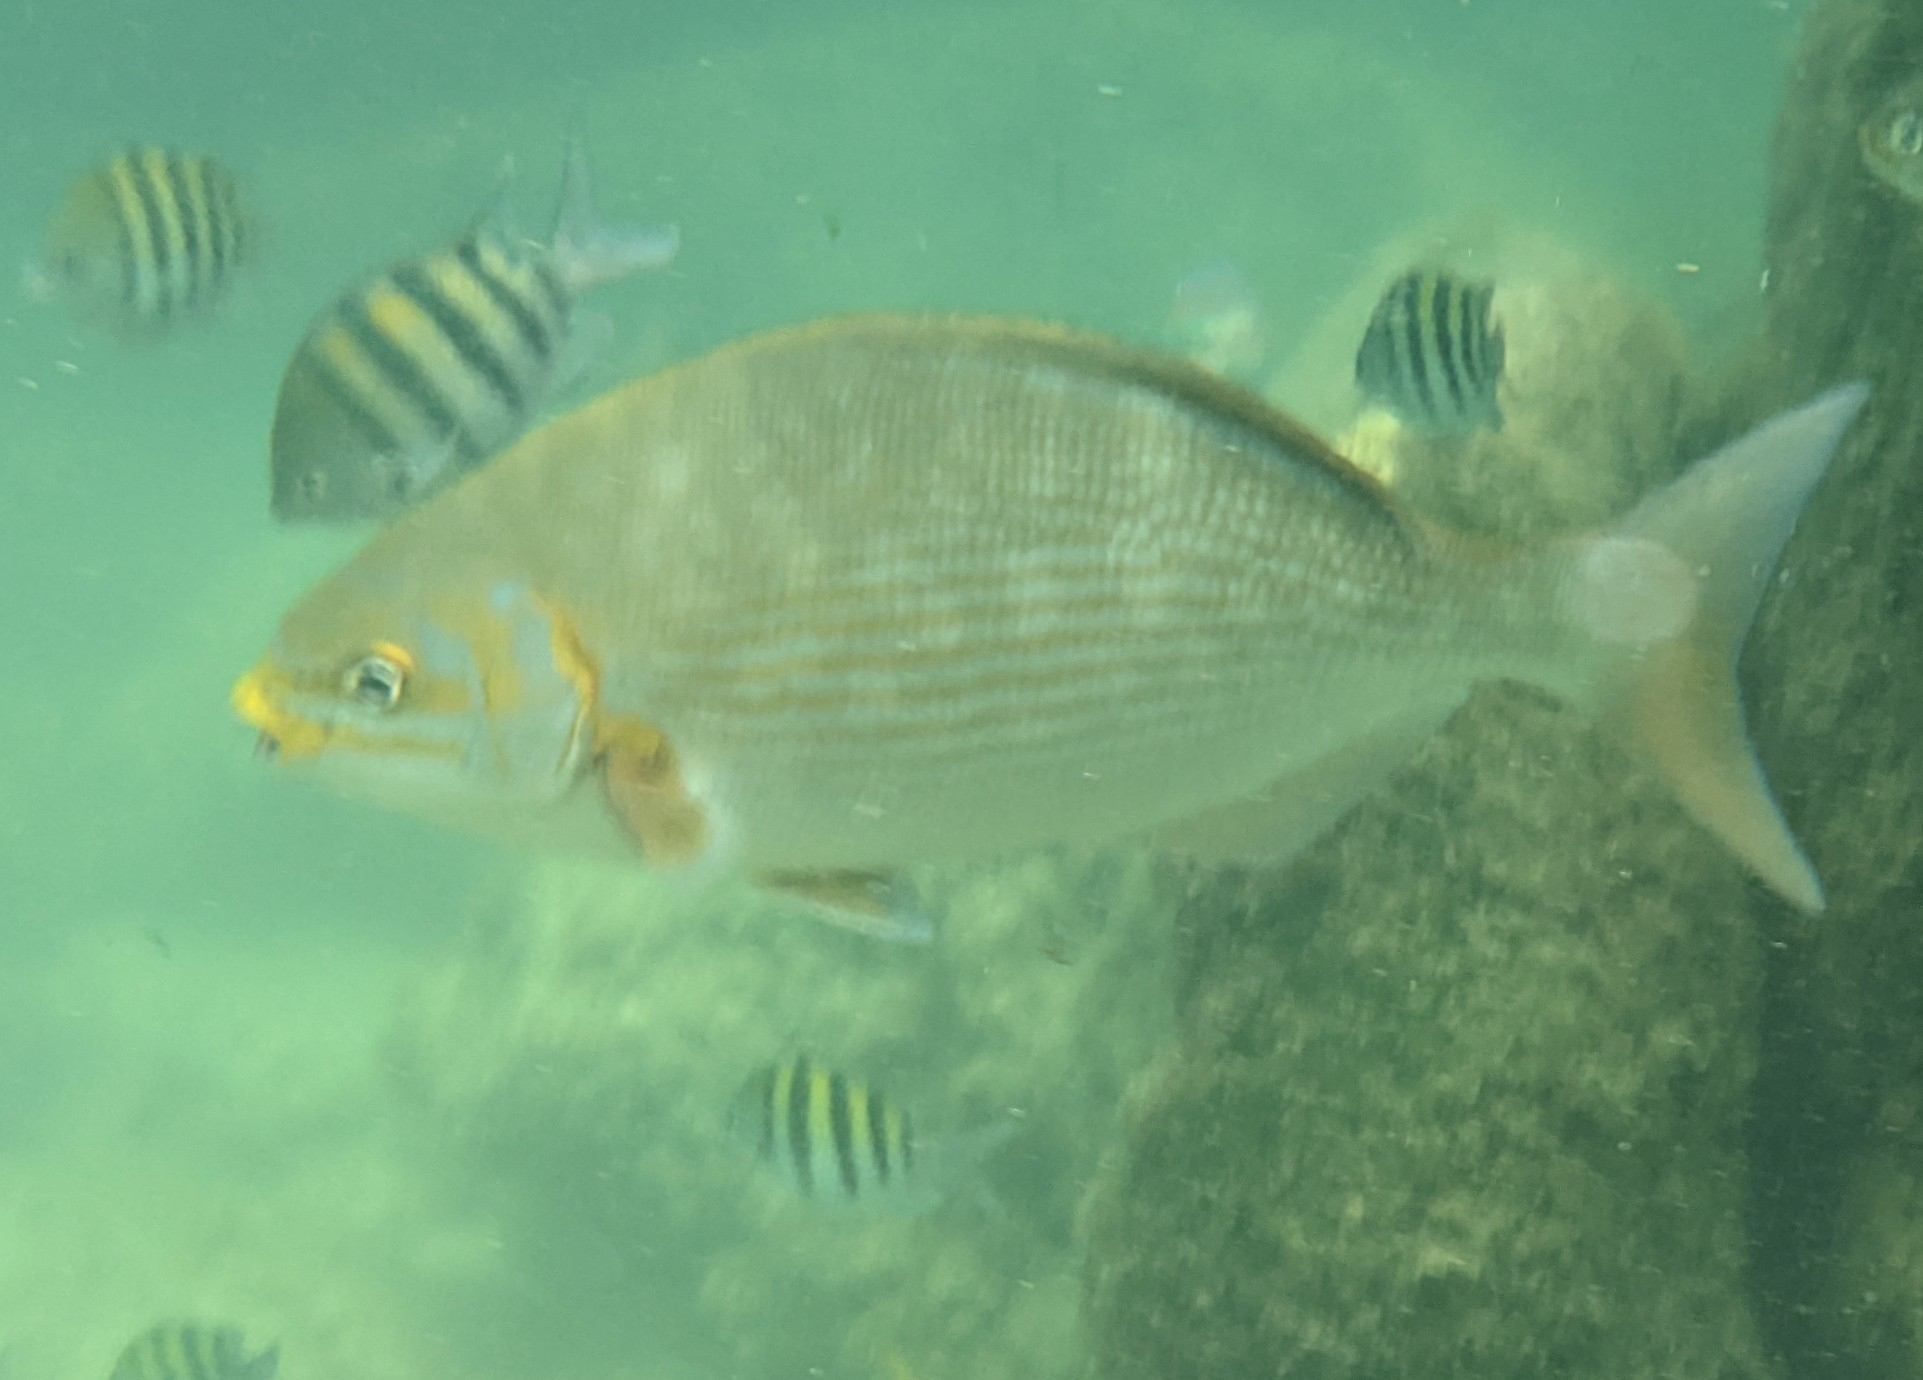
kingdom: Animalia
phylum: Chordata
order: Perciformes
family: Kyphosidae
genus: Kyphosus
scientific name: Kyphosus vaigiensis
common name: Brassy chub
